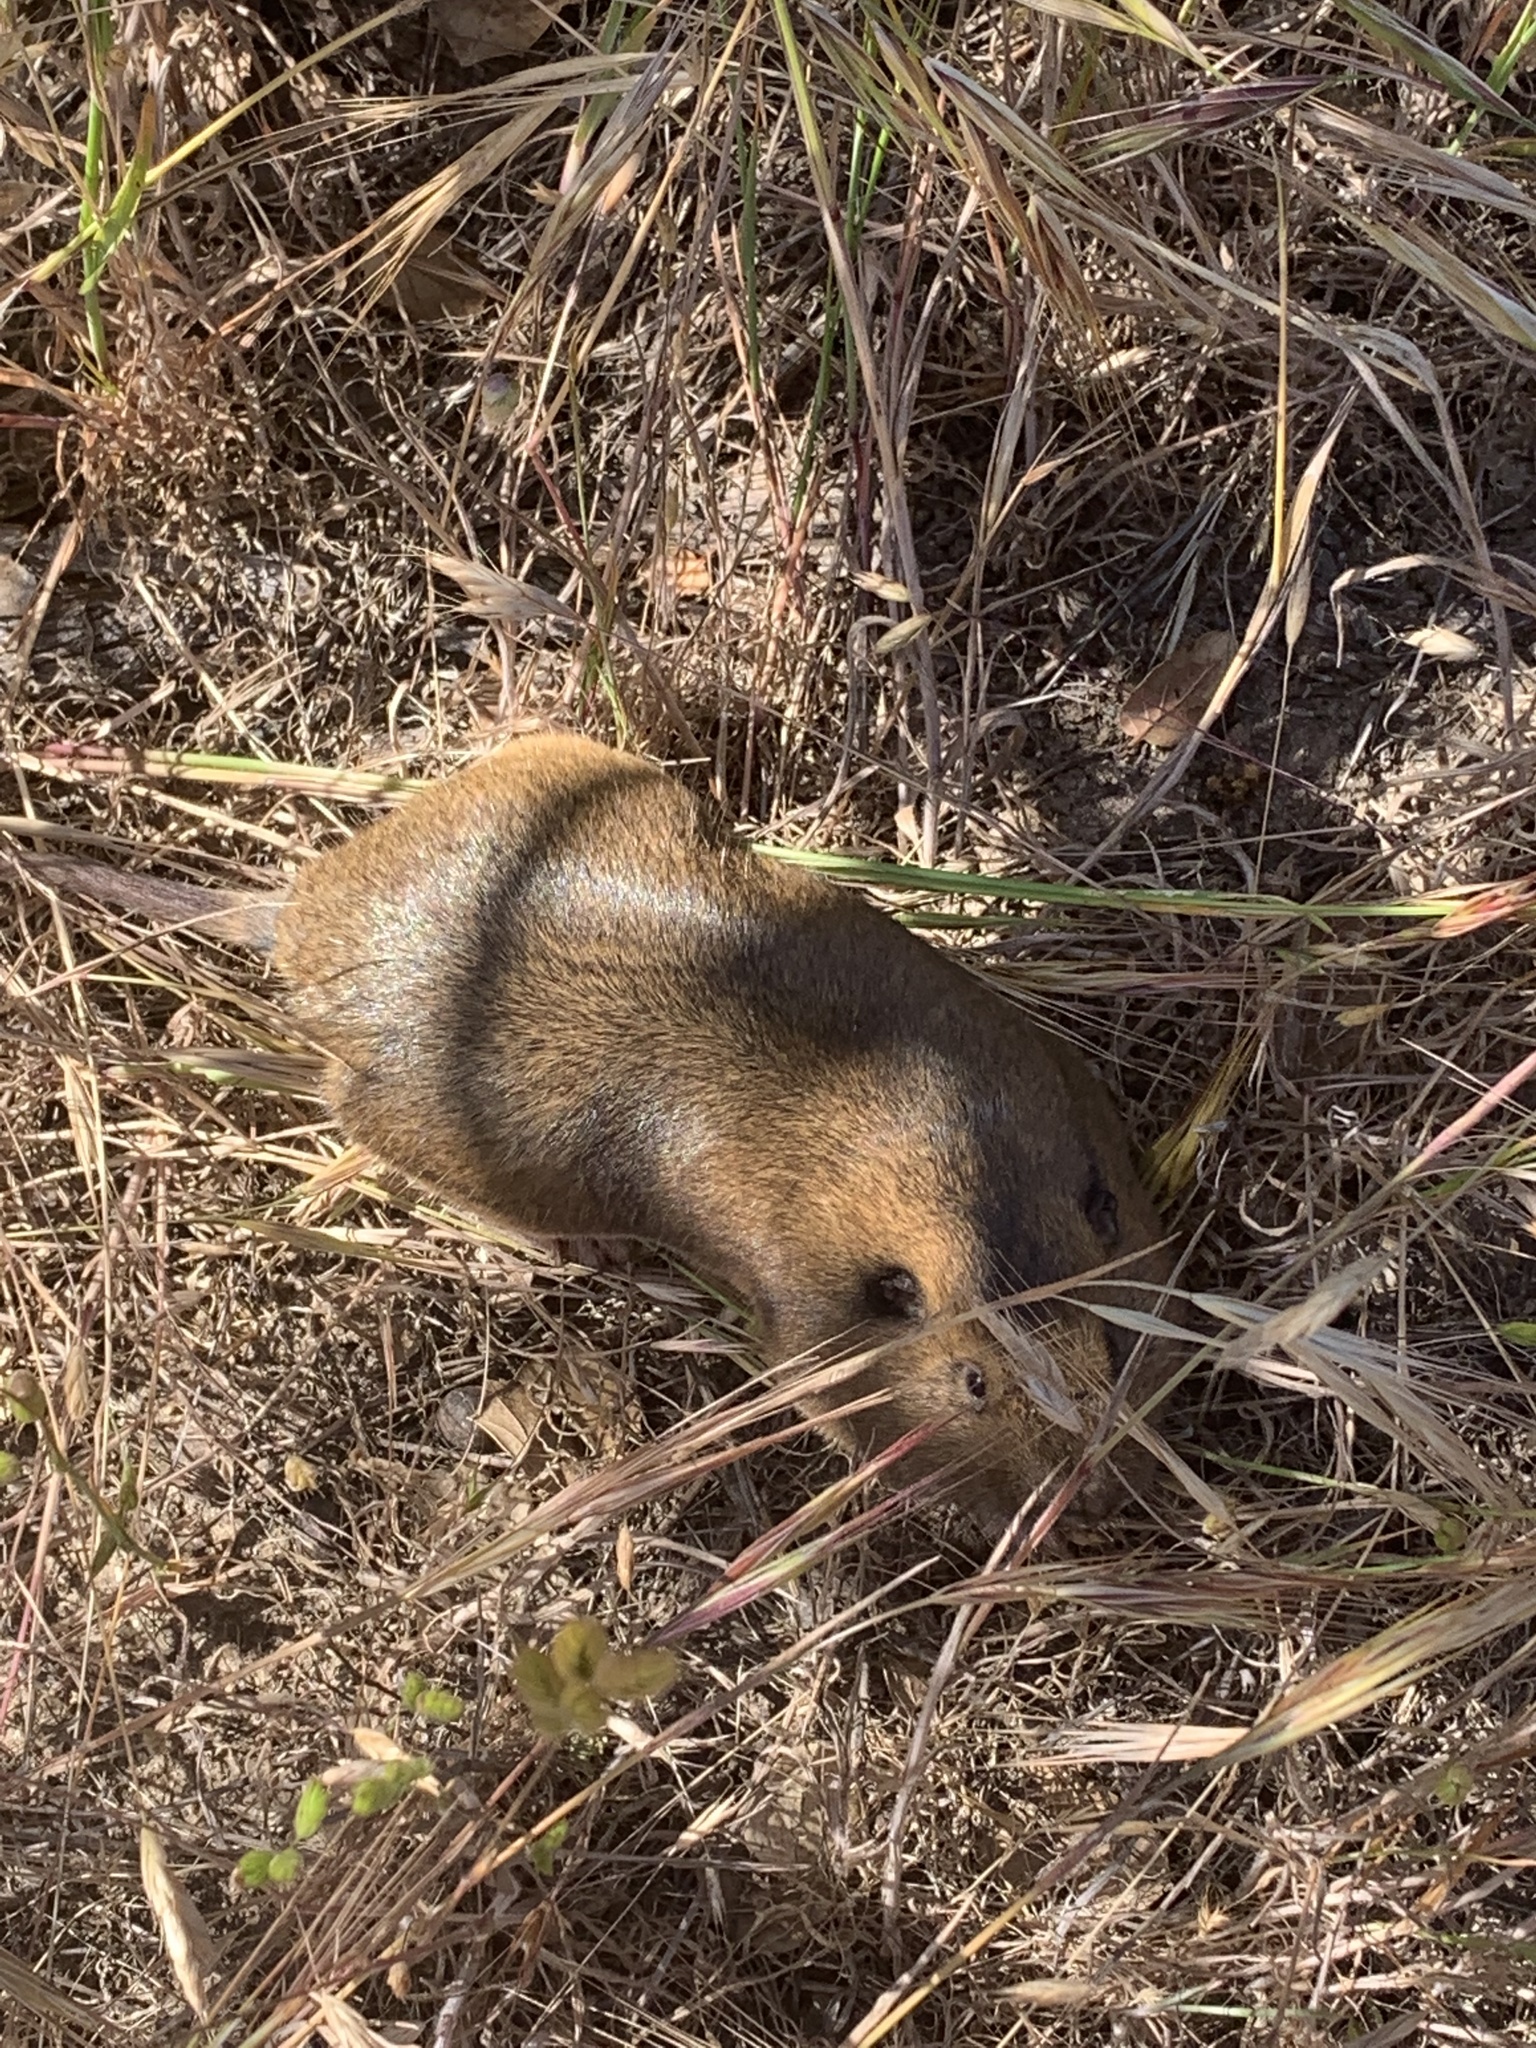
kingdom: Animalia
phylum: Chordata
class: Mammalia
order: Rodentia
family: Geomyidae
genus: Thomomys
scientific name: Thomomys bottae
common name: Botta's pocket gopher
